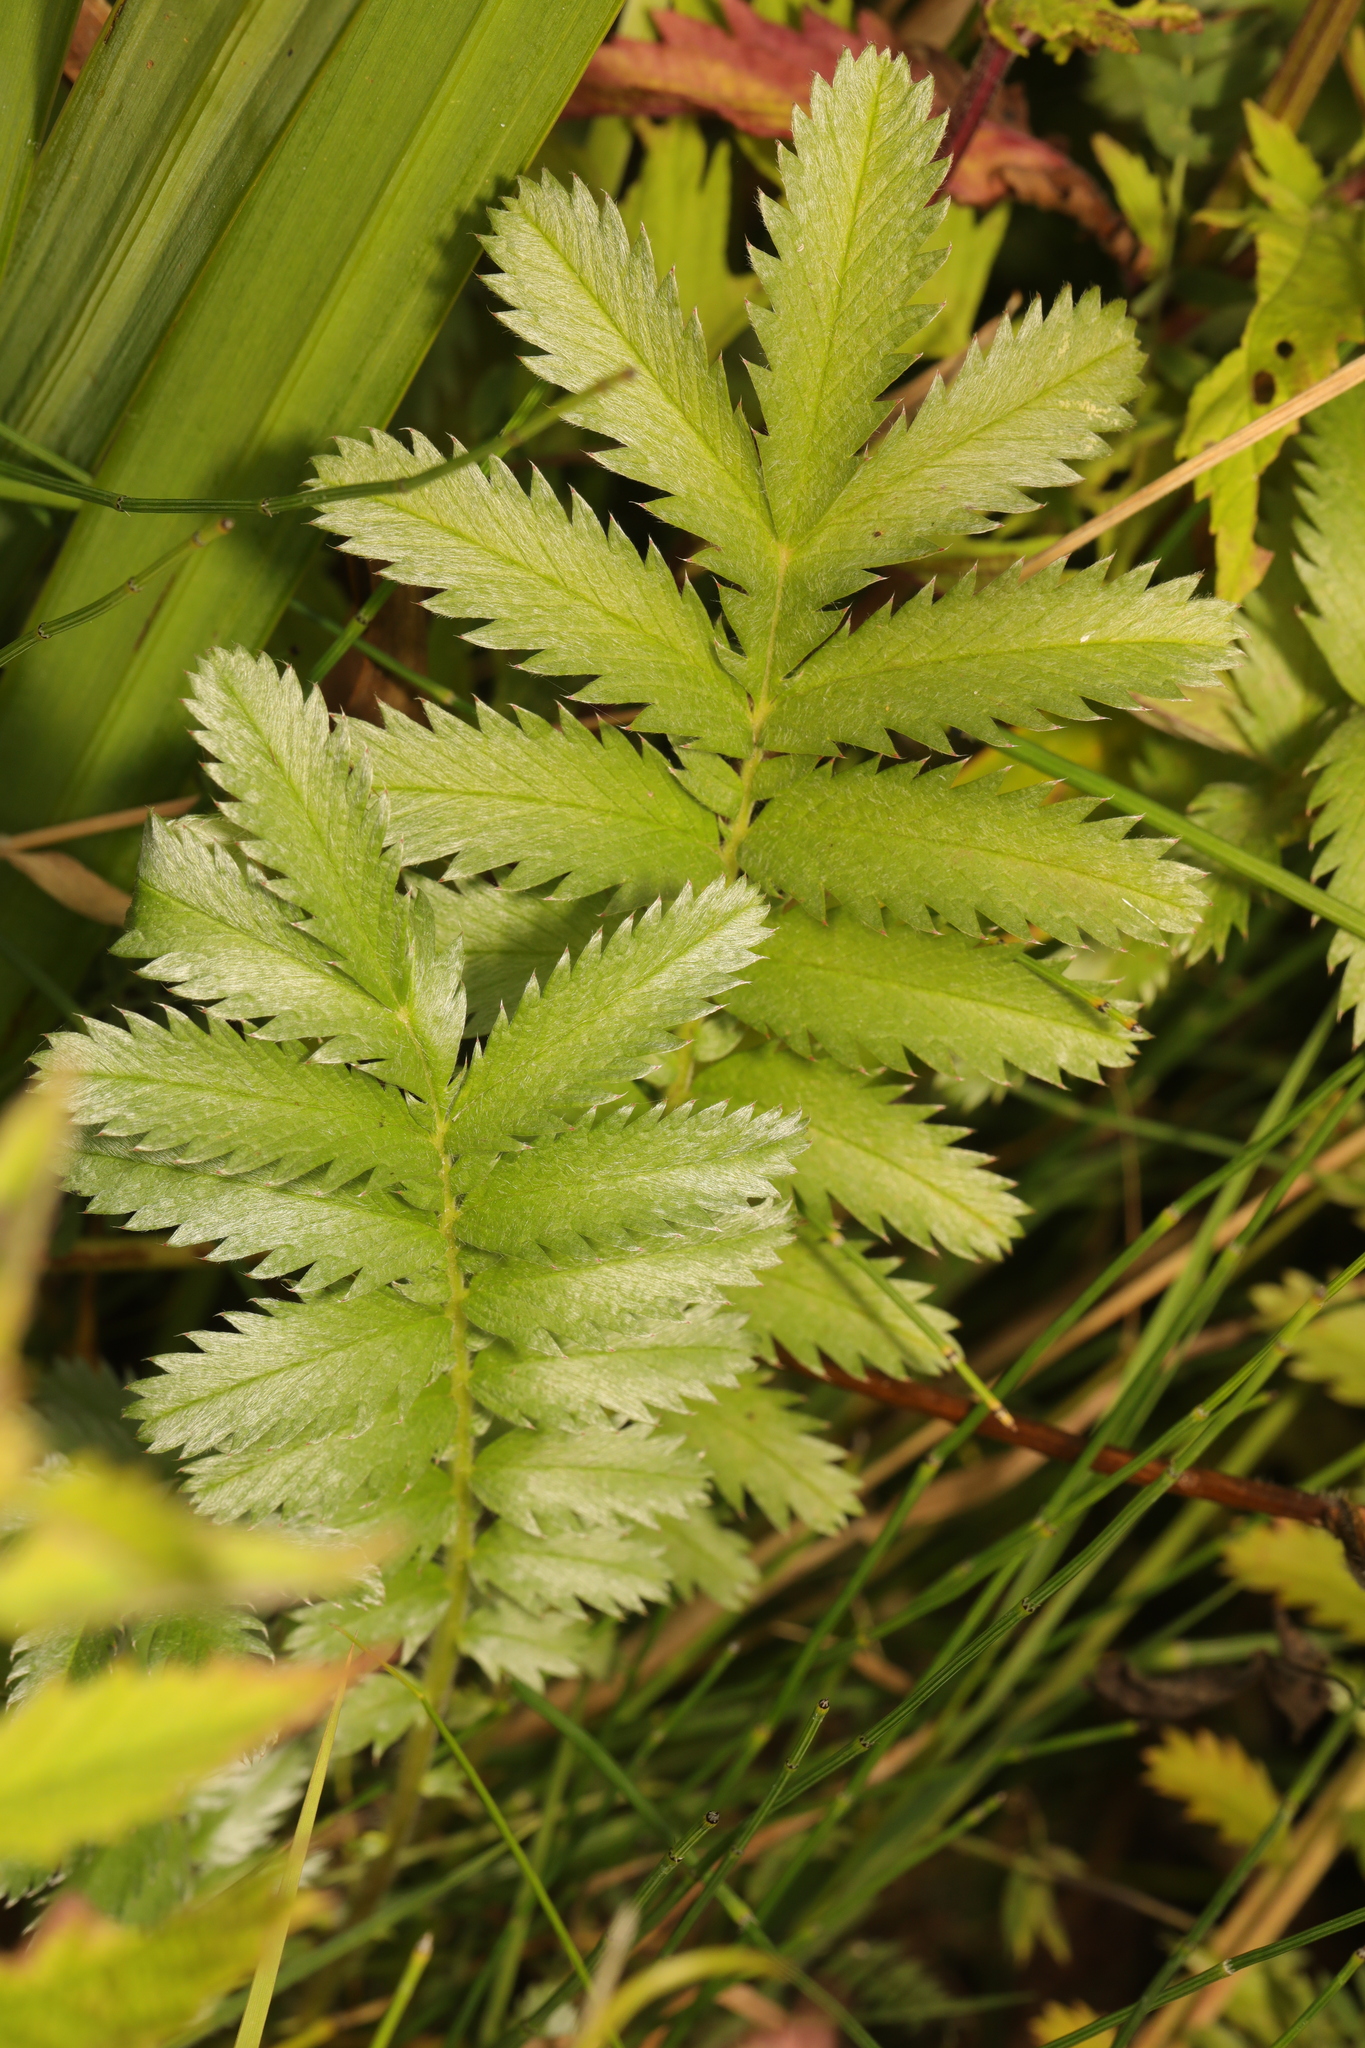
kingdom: Plantae
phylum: Tracheophyta
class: Magnoliopsida
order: Rosales
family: Rosaceae
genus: Argentina
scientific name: Argentina anserina
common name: Common silverweed
